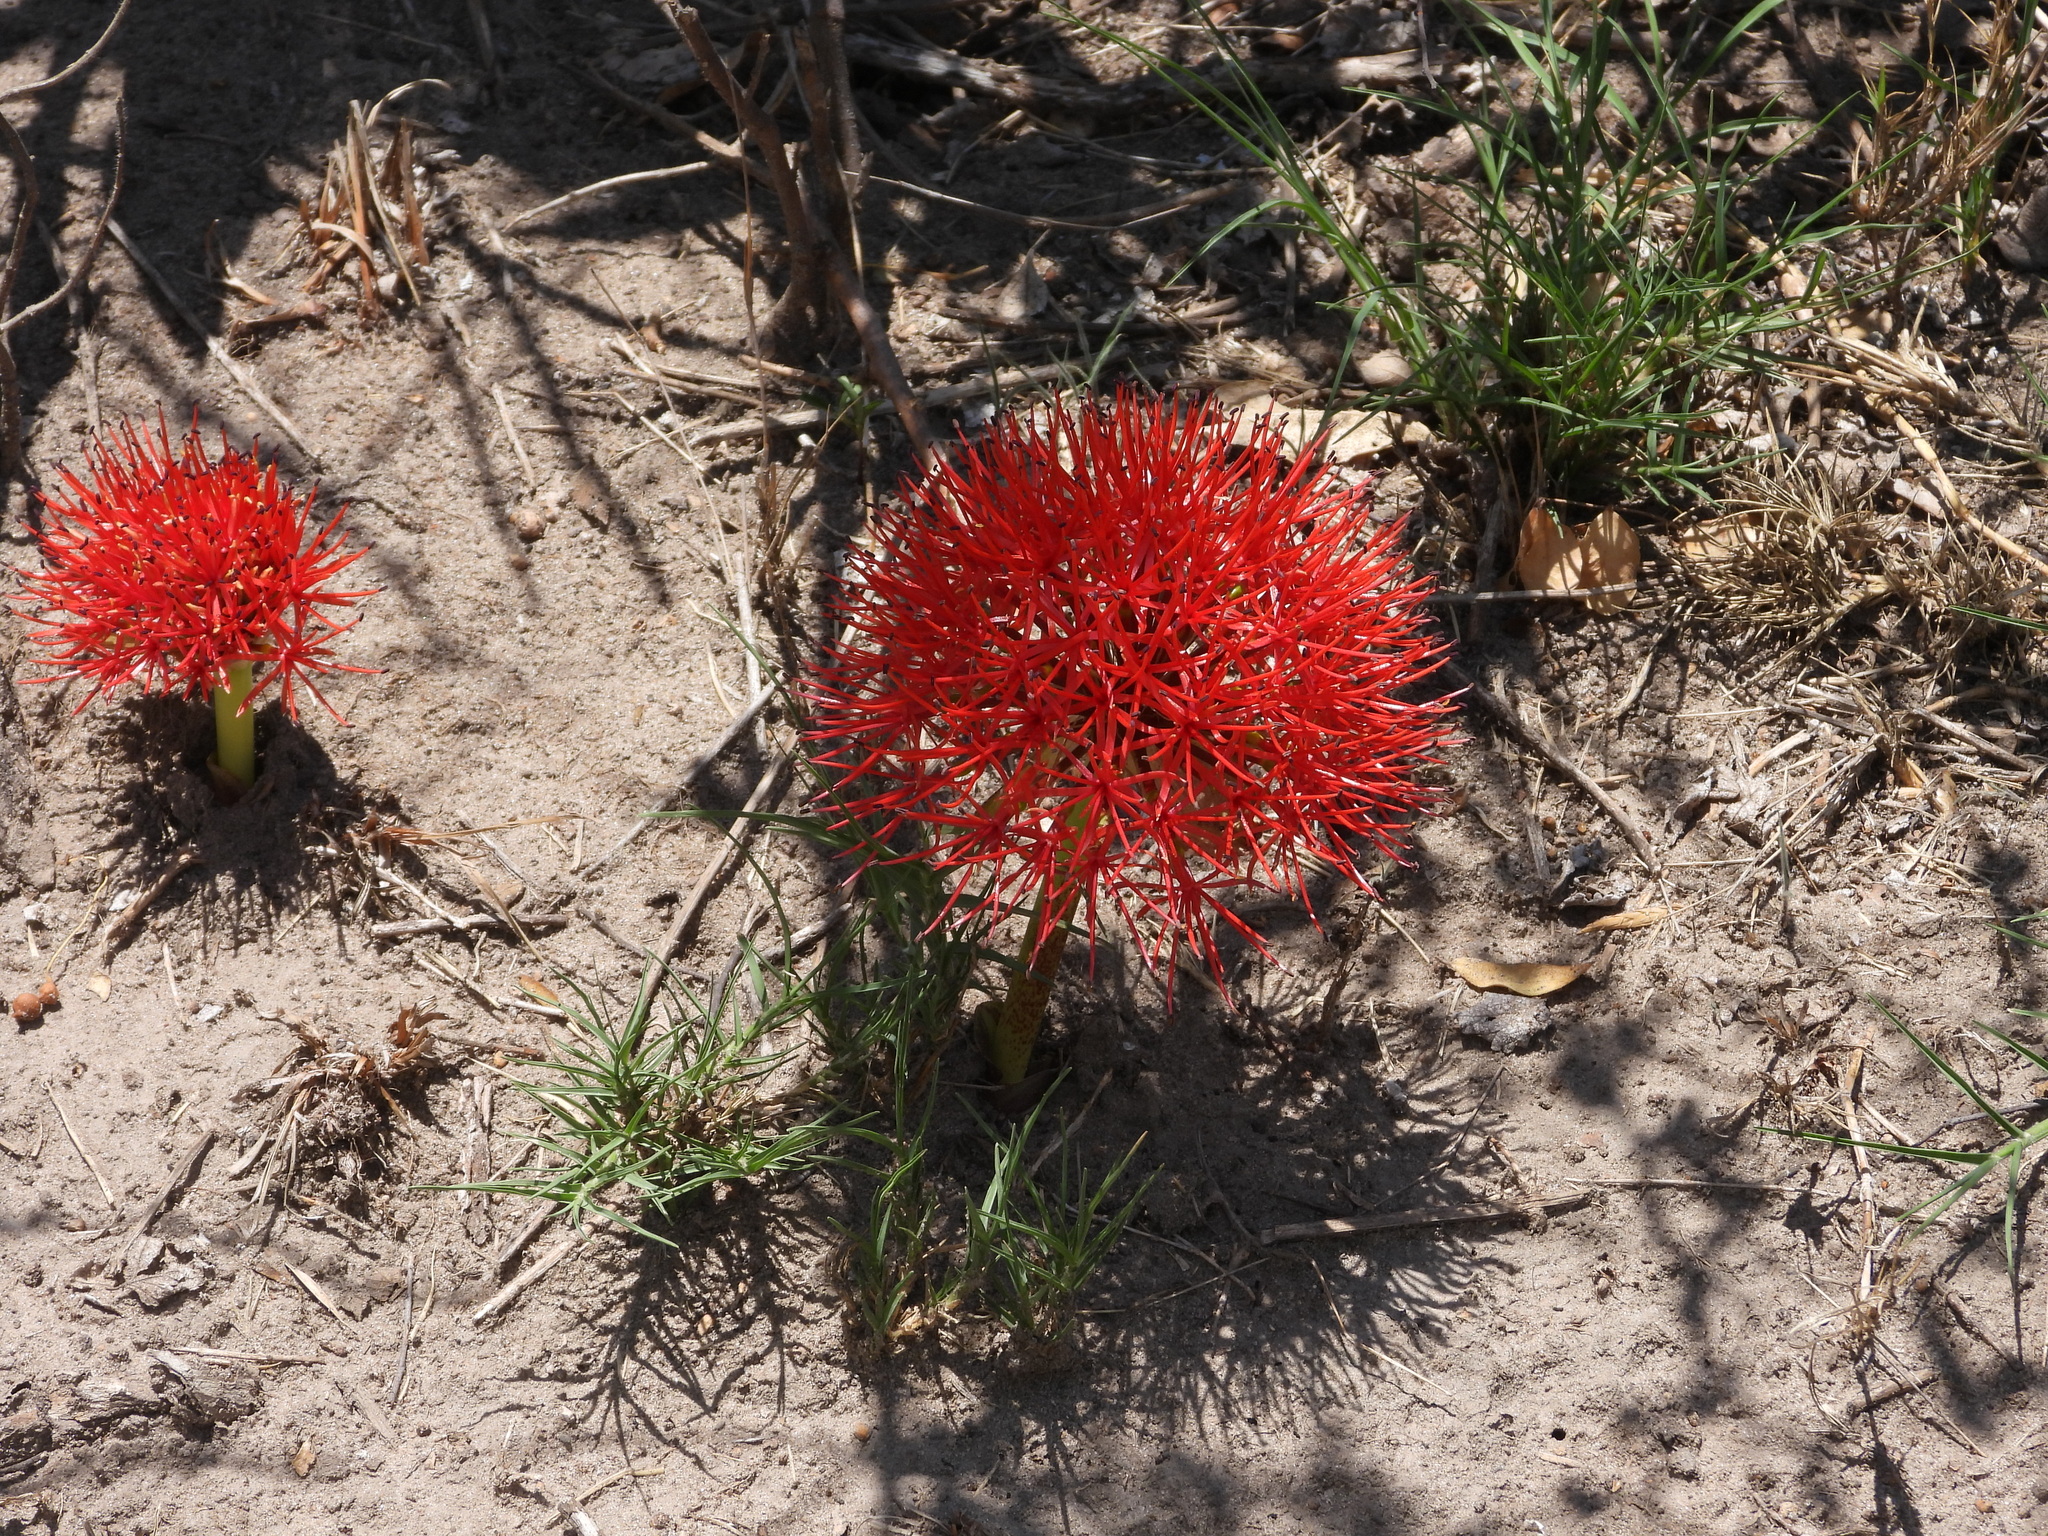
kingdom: Plantae
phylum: Tracheophyta
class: Liliopsida
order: Asparagales
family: Amaryllidaceae
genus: Scadoxus
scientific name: Scadoxus multiflorus
